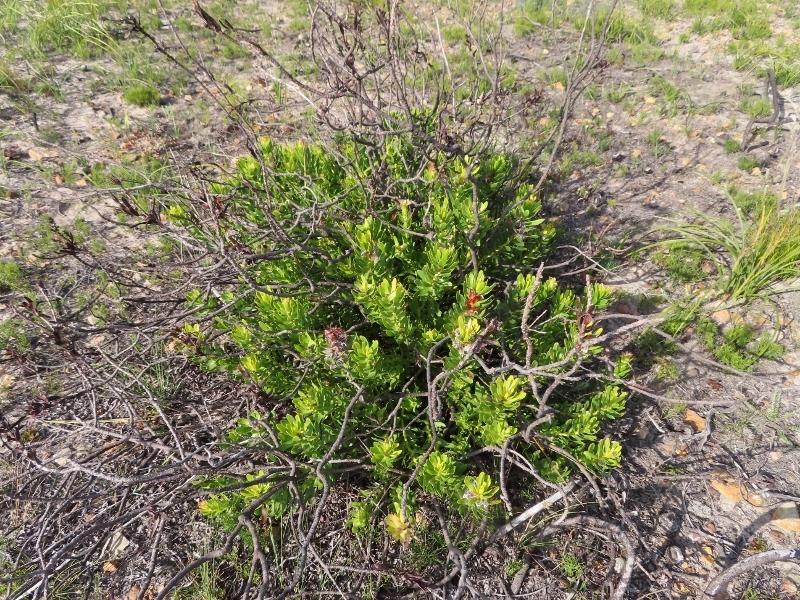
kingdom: Plantae
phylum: Tracheophyta
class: Magnoliopsida
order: Proteales
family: Proteaceae
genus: Mimetes
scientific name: Mimetes cucullatus
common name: Common pagoda
